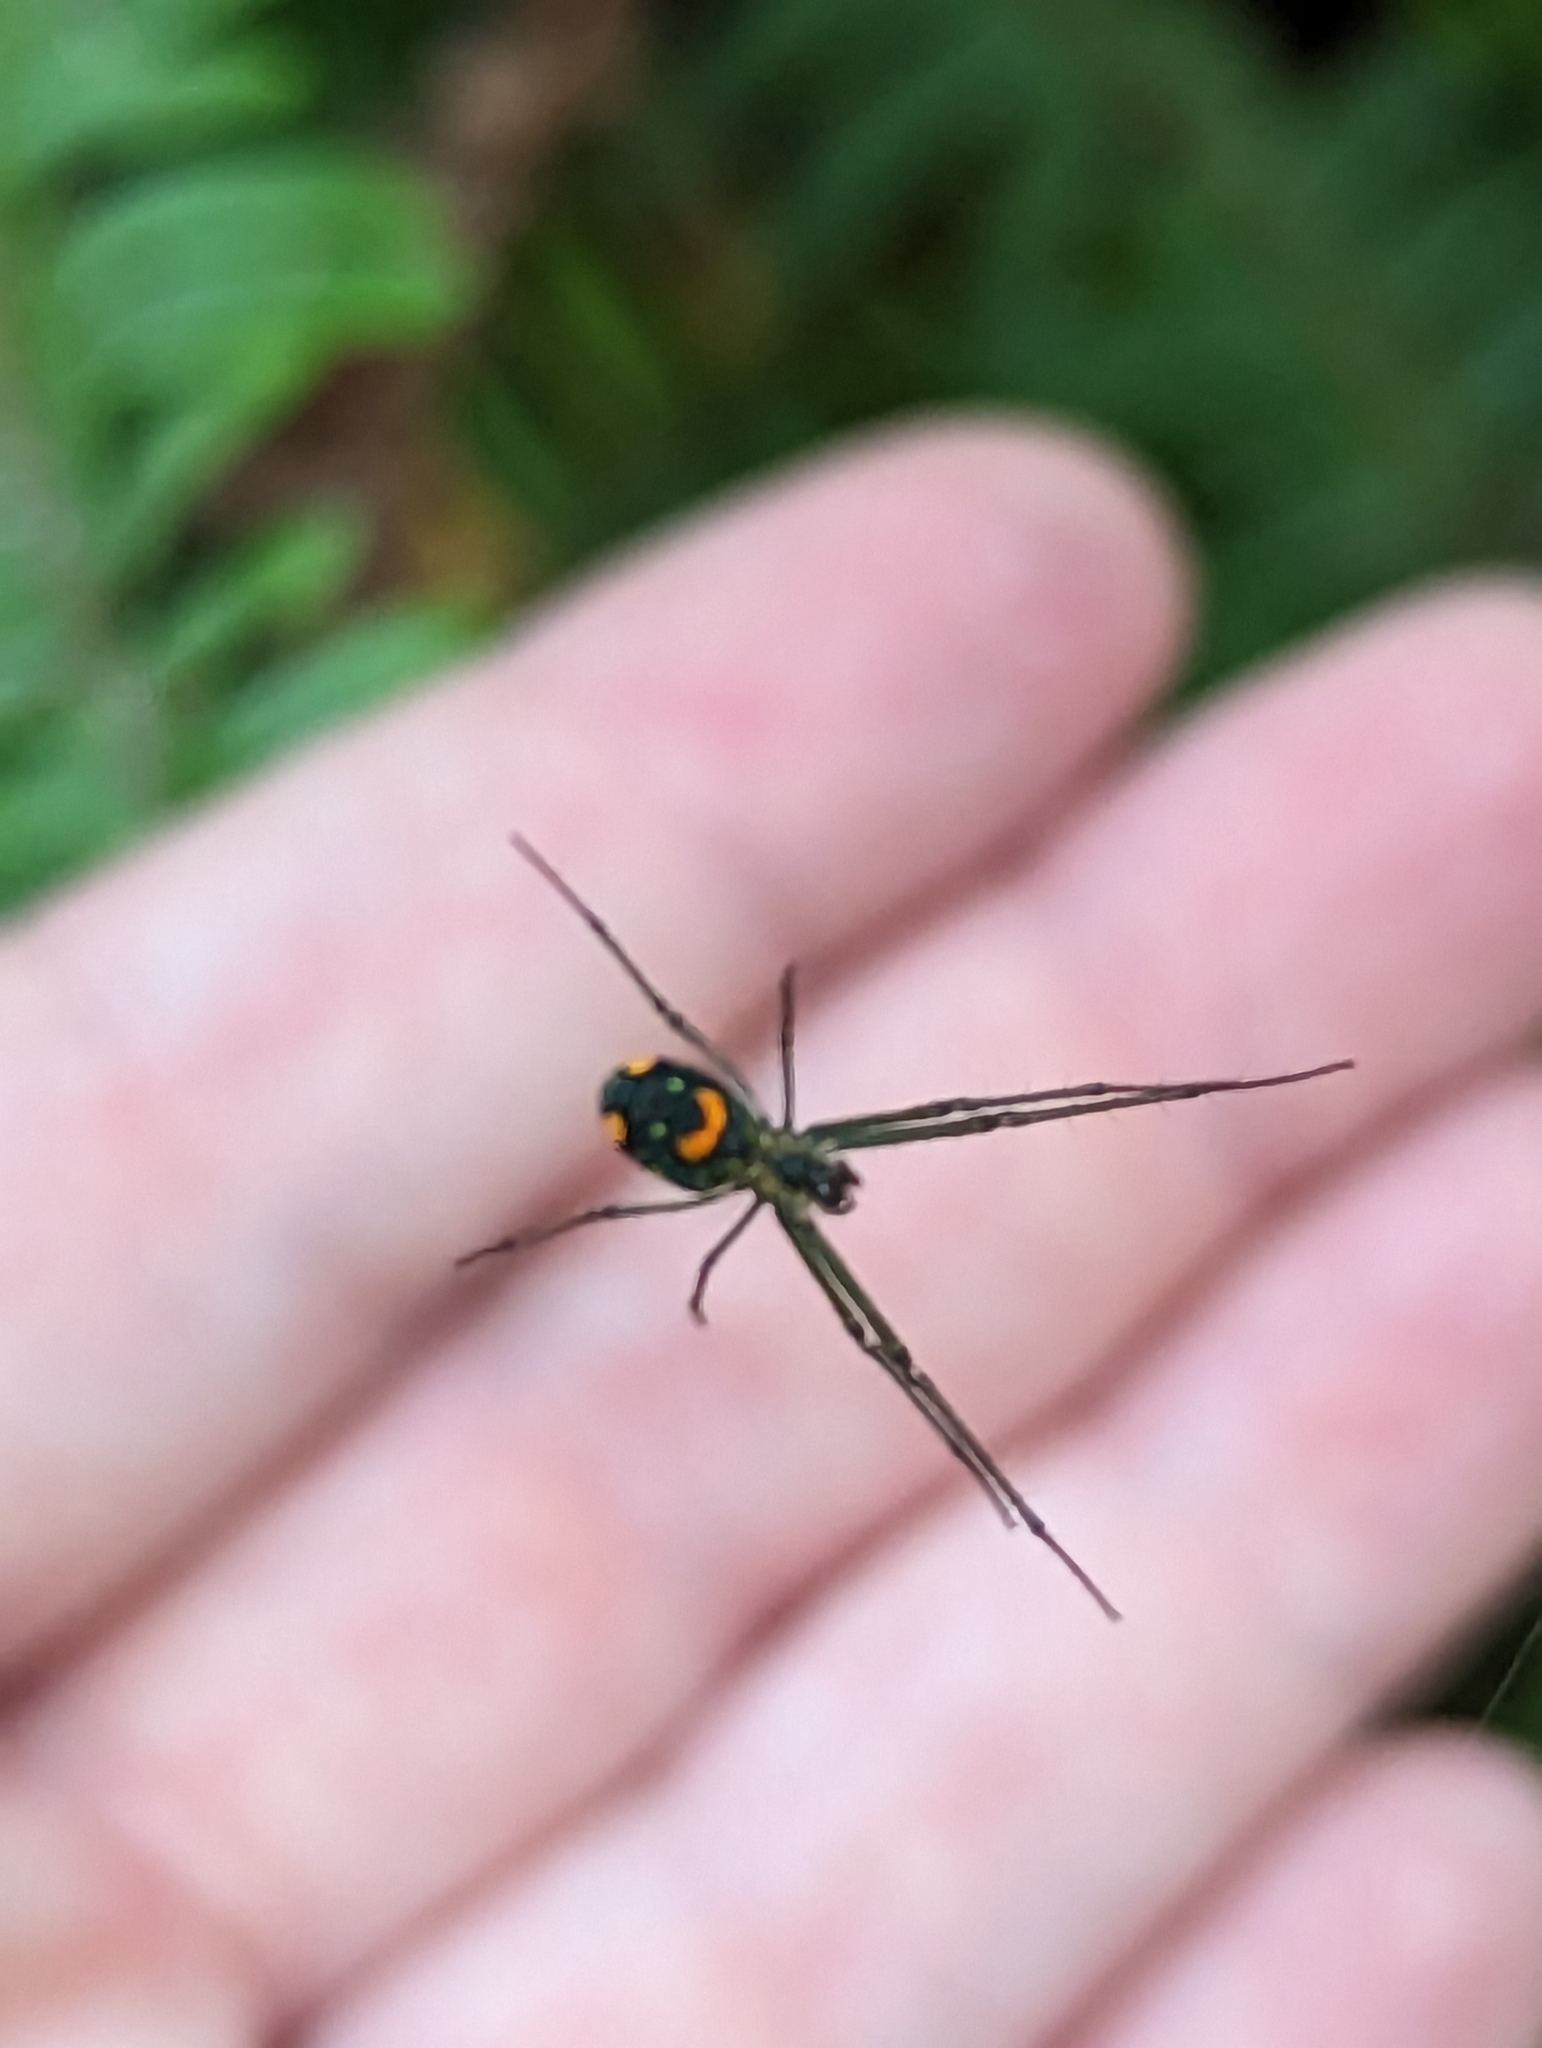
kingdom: Animalia
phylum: Arthropoda
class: Arachnida
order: Araneae
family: Tetragnathidae
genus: Leucauge
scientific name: Leucauge argyrobapta
